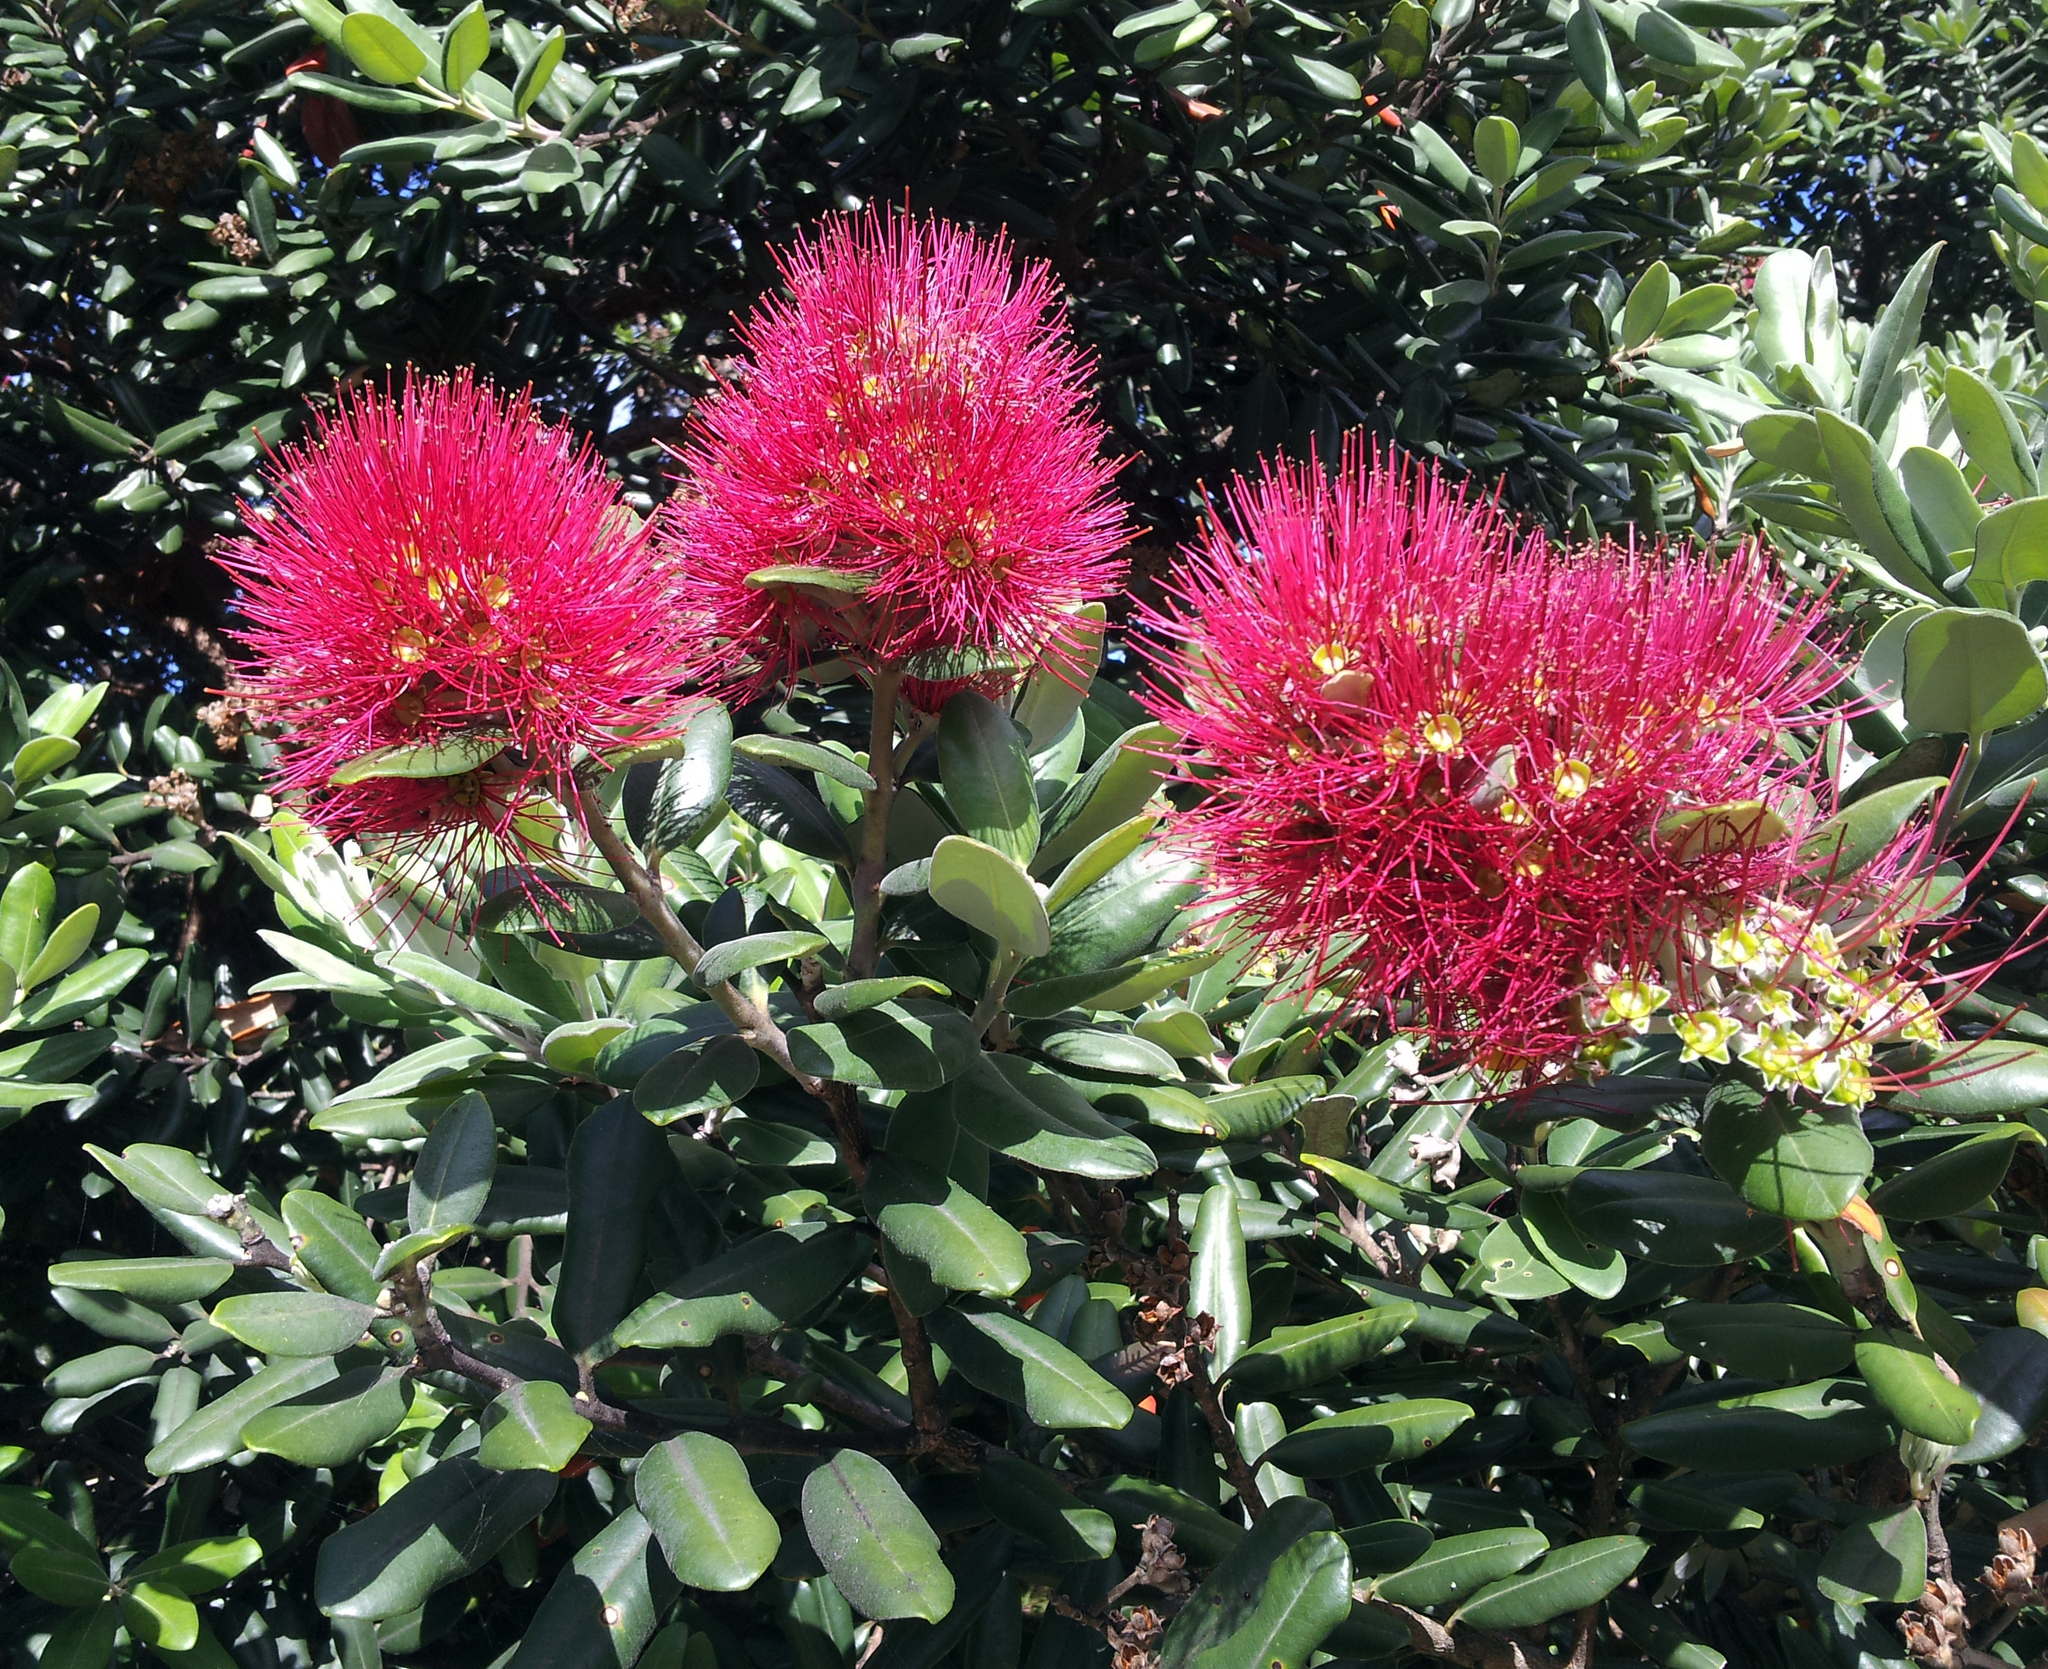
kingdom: Plantae
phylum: Tracheophyta
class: Magnoliopsida
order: Myrtales
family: Myrtaceae
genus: Metrosideros
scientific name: Metrosideros excelsa
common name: New zealand christmastree
